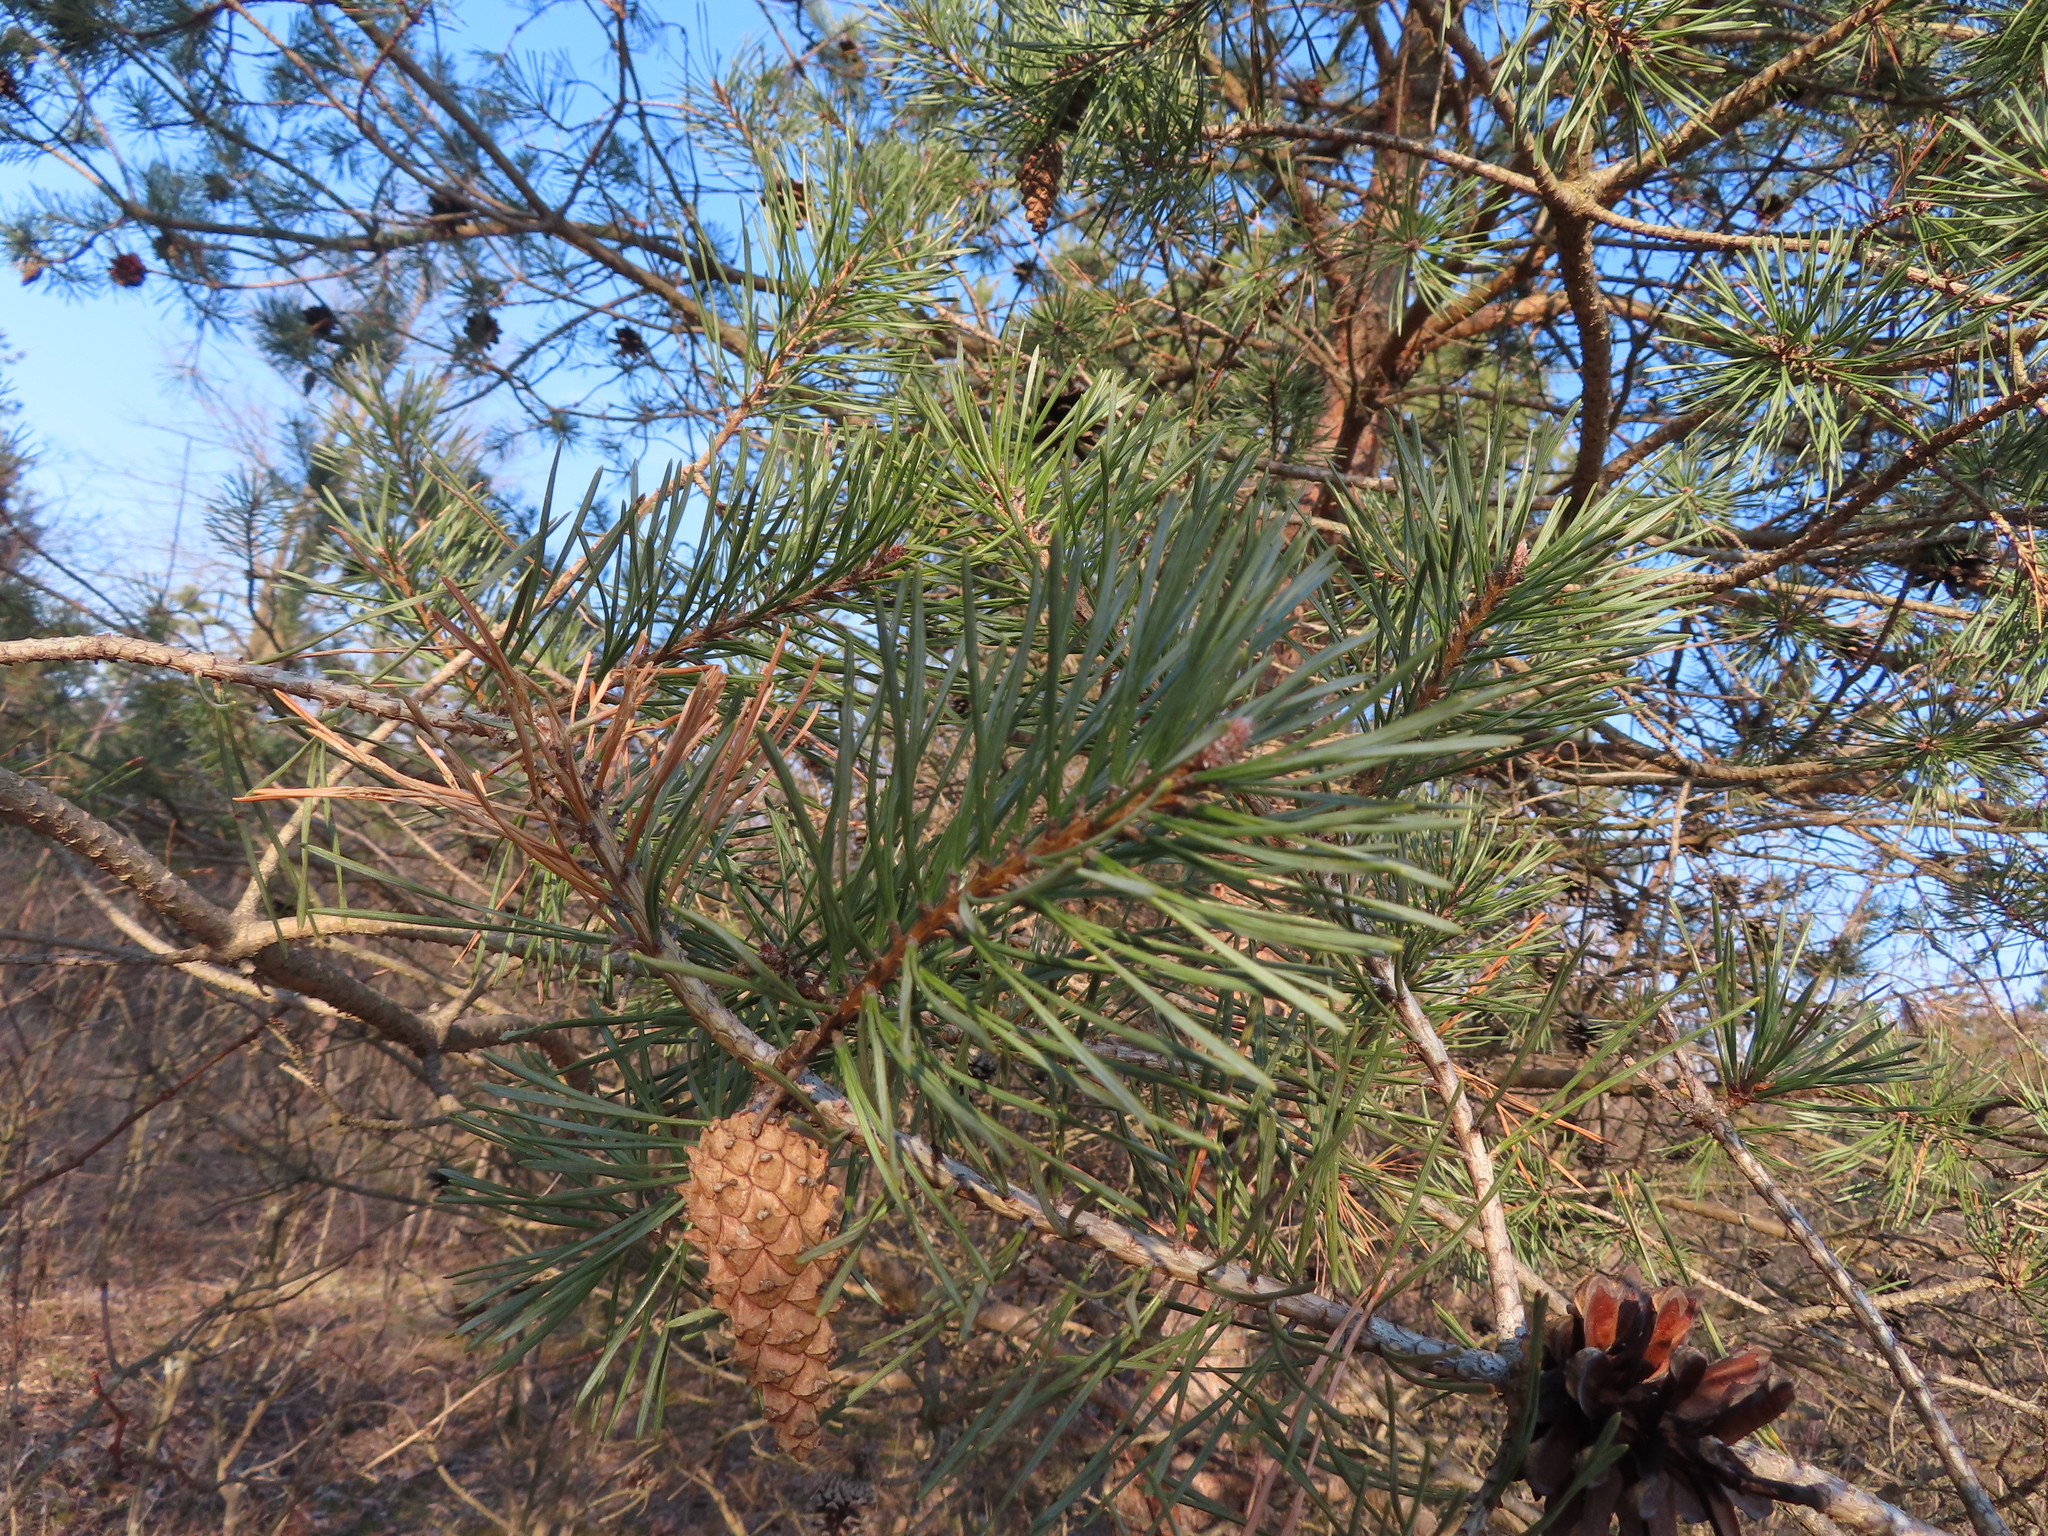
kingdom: Plantae
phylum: Tracheophyta
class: Pinopsida
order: Pinales
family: Pinaceae
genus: Pinus
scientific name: Pinus sylvestris
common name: Scots pine
